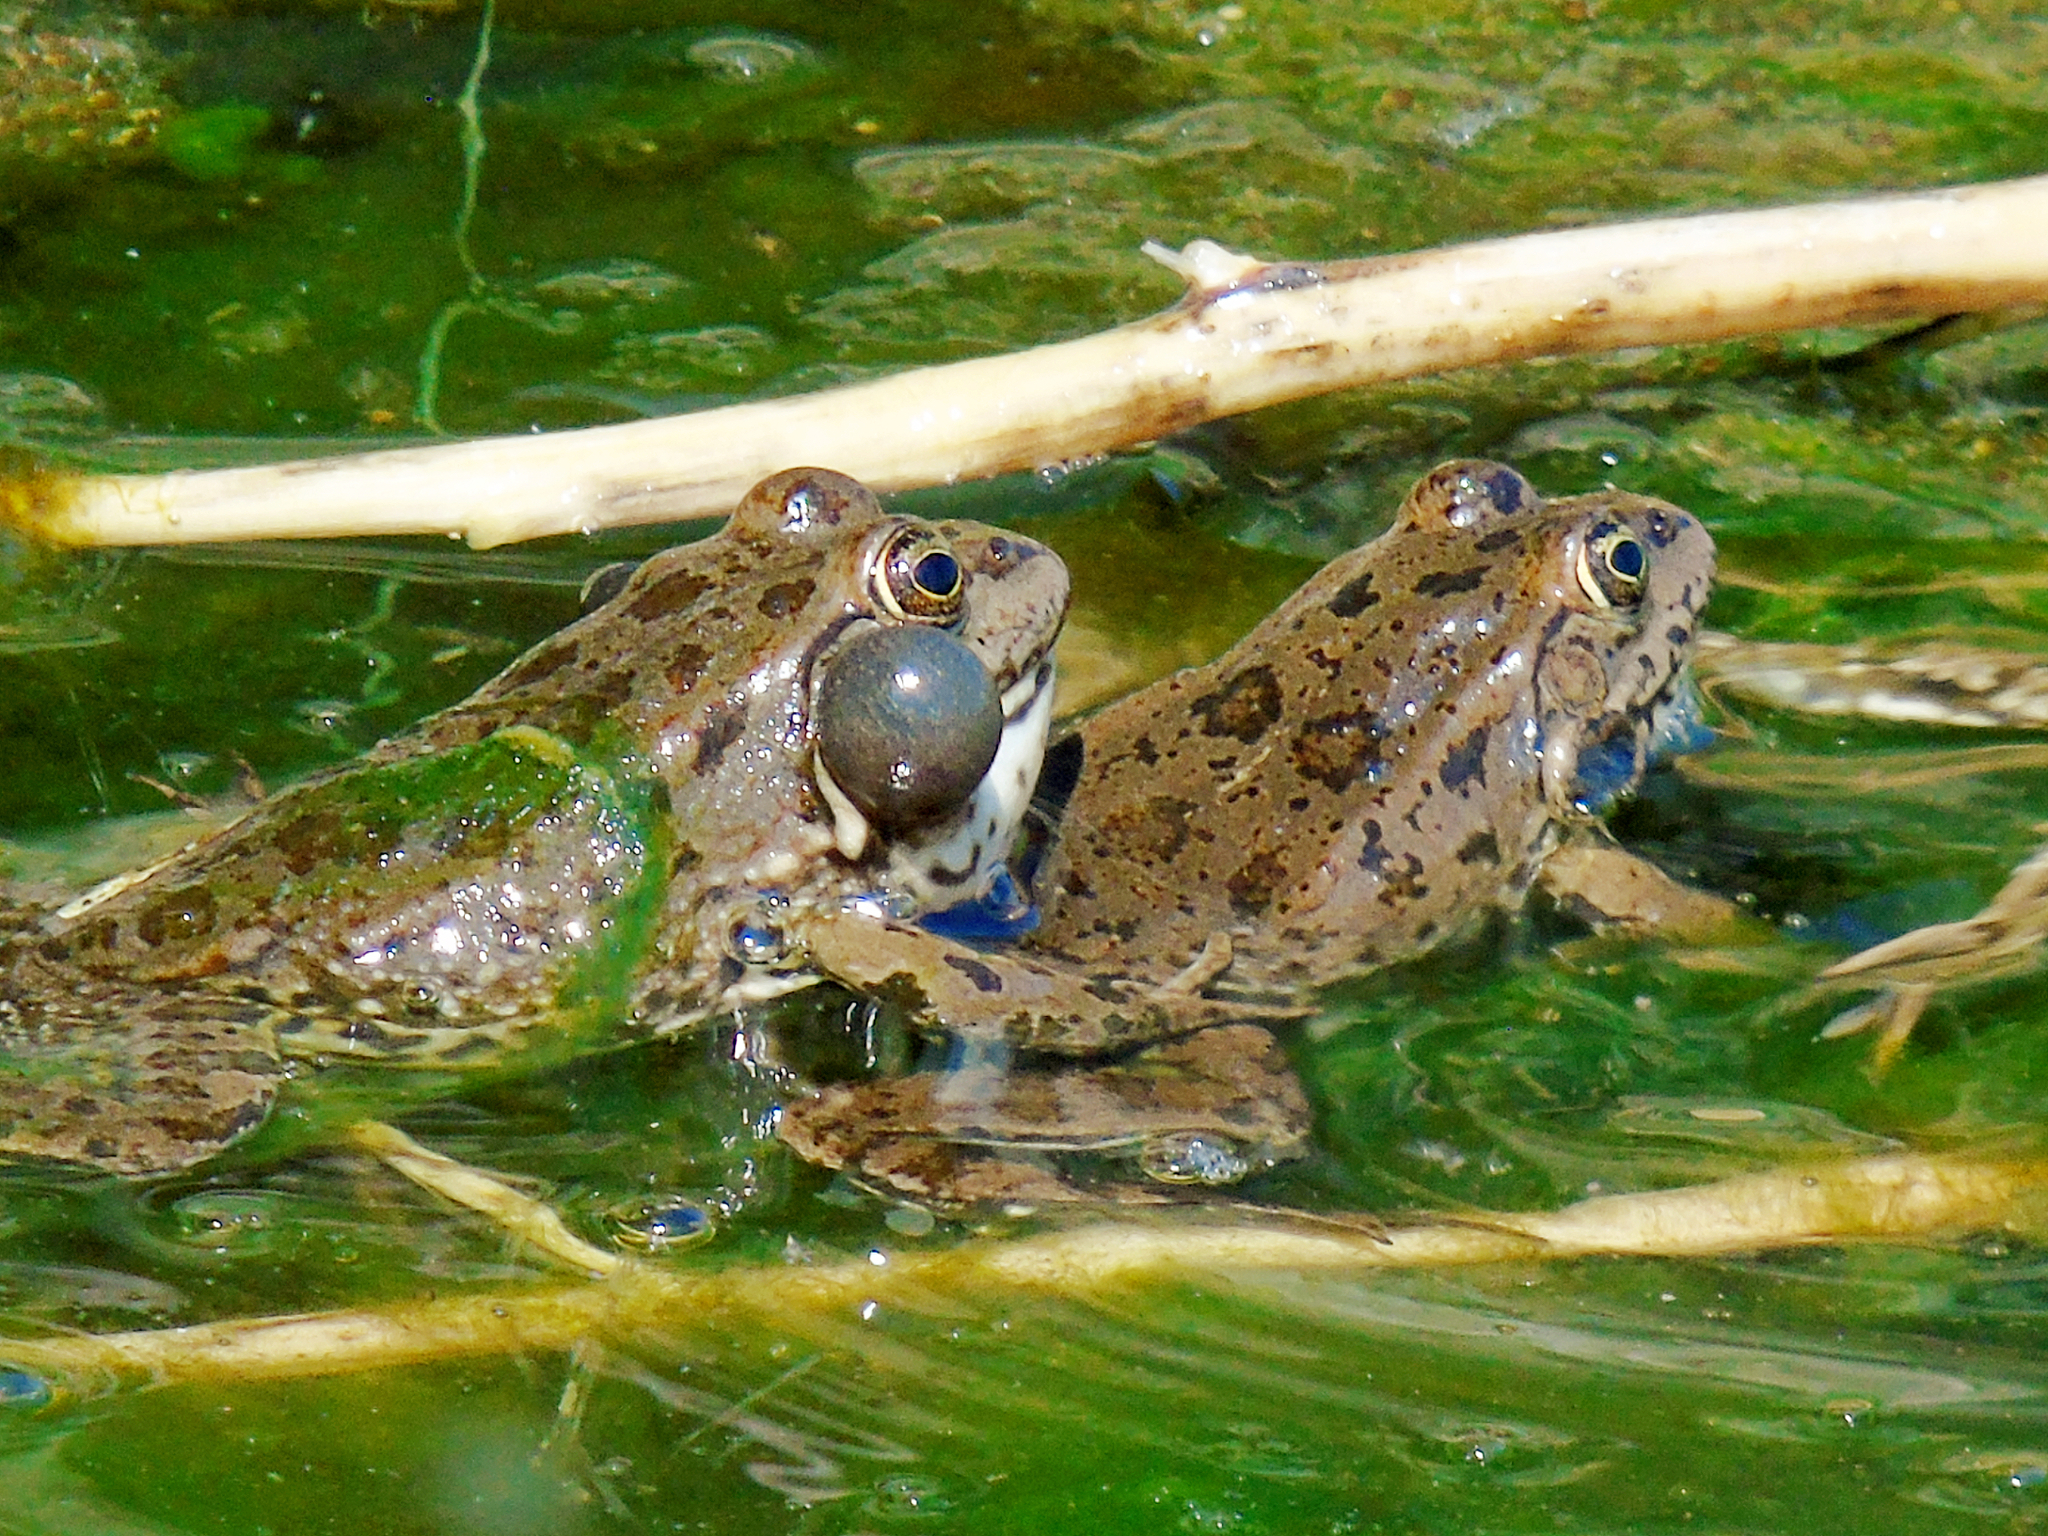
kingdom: Animalia
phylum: Chordata
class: Amphibia
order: Anura
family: Ranidae
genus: Pelophylax
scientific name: Pelophylax ridibundus
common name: Marsh frog
